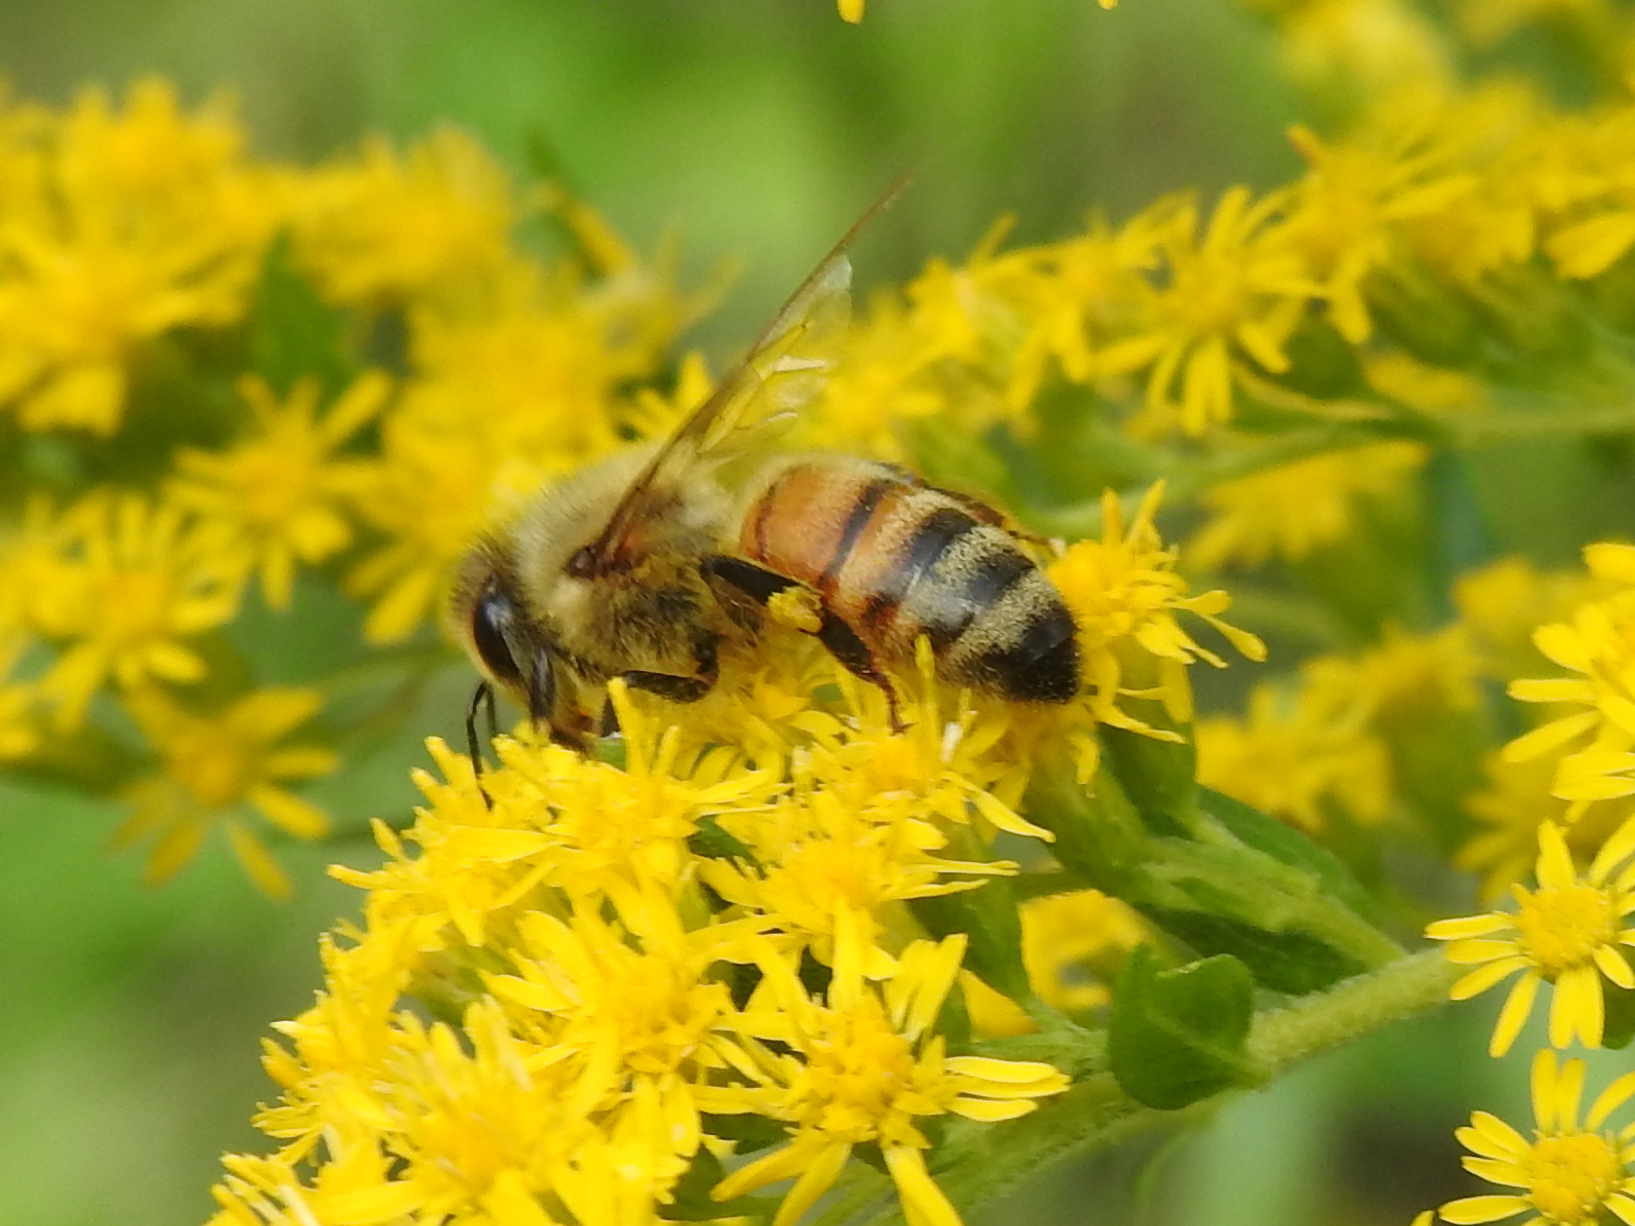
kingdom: Animalia
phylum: Arthropoda
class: Insecta
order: Hymenoptera
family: Apidae
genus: Apis
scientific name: Apis mellifera
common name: Honey bee
